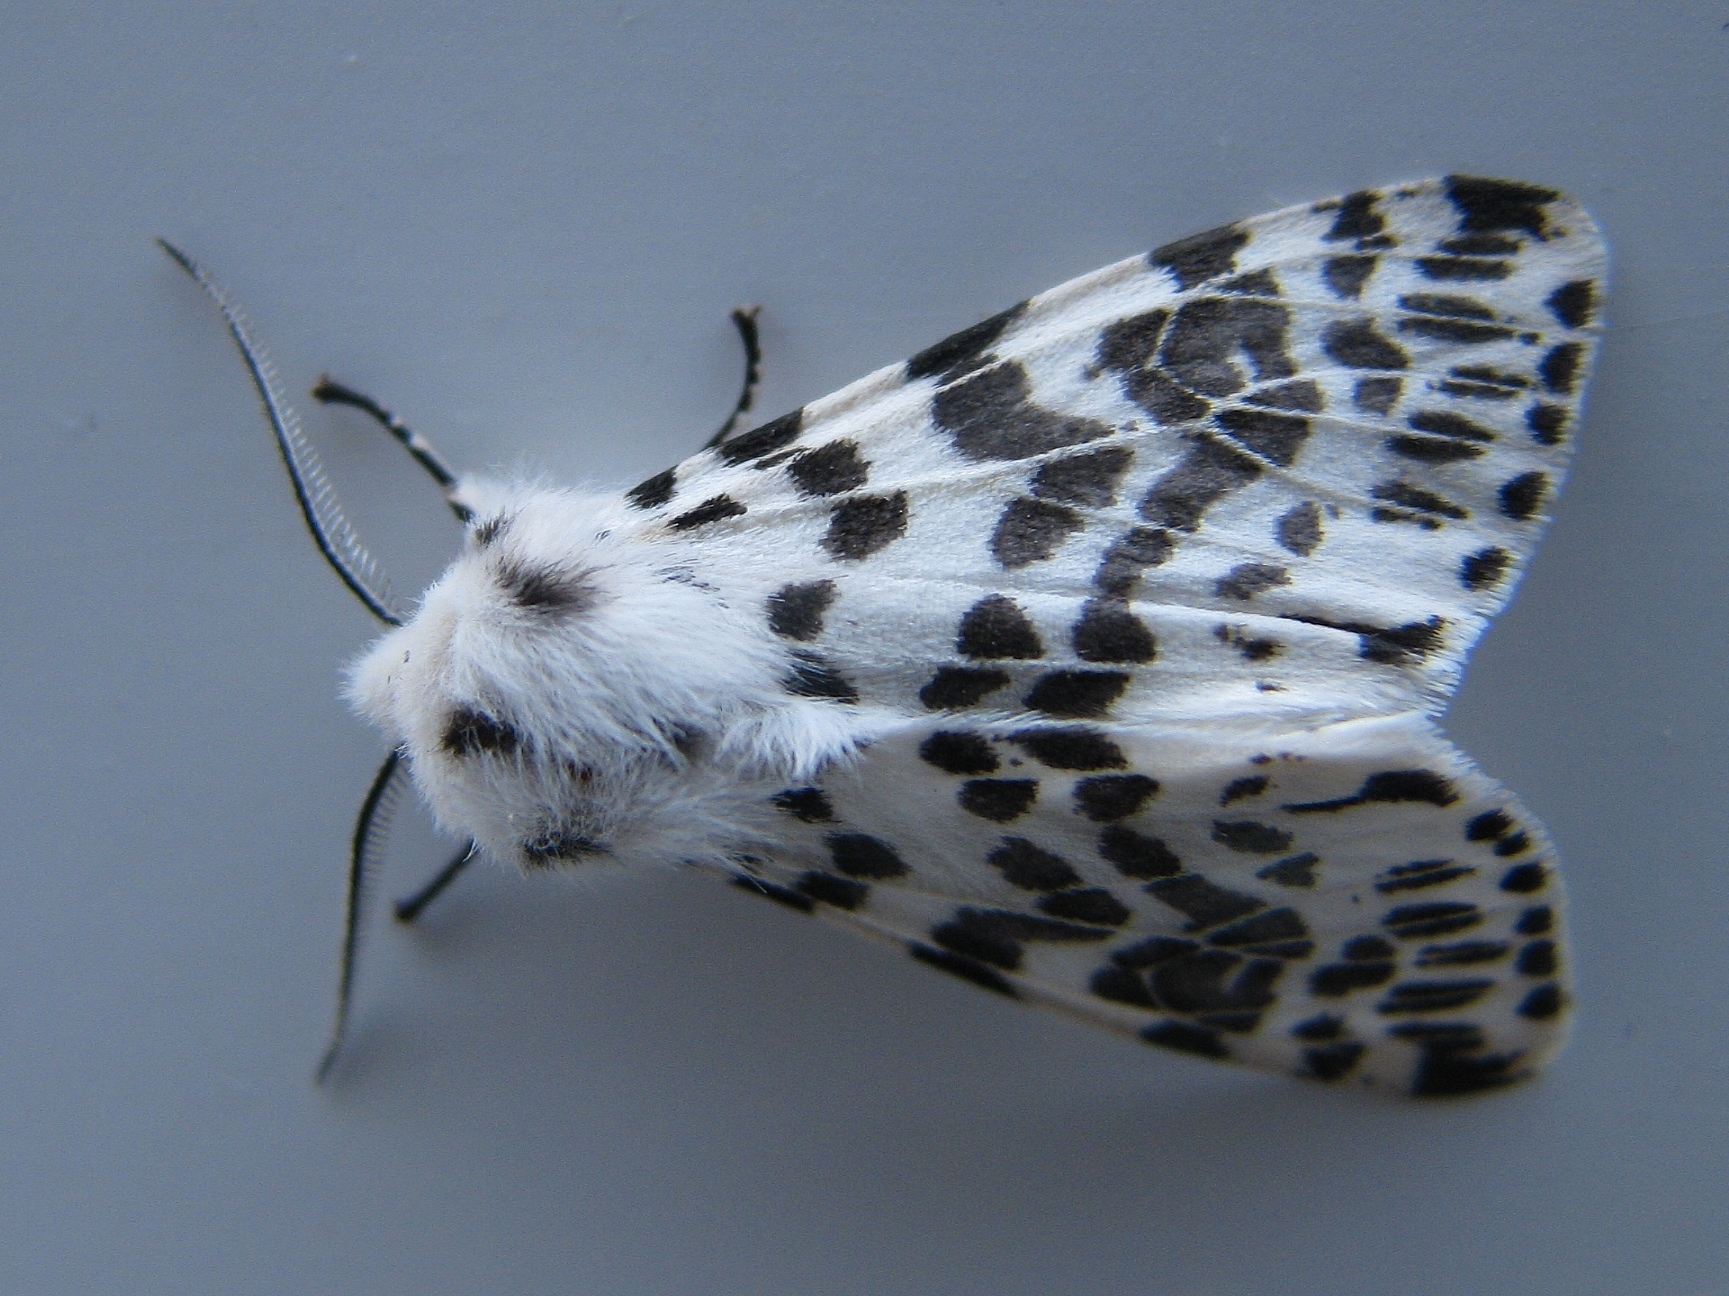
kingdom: Animalia
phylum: Arthropoda
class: Insecta
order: Lepidoptera
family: Erebidae
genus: Hyphantria
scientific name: Hyphantria cunea
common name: American white moth
